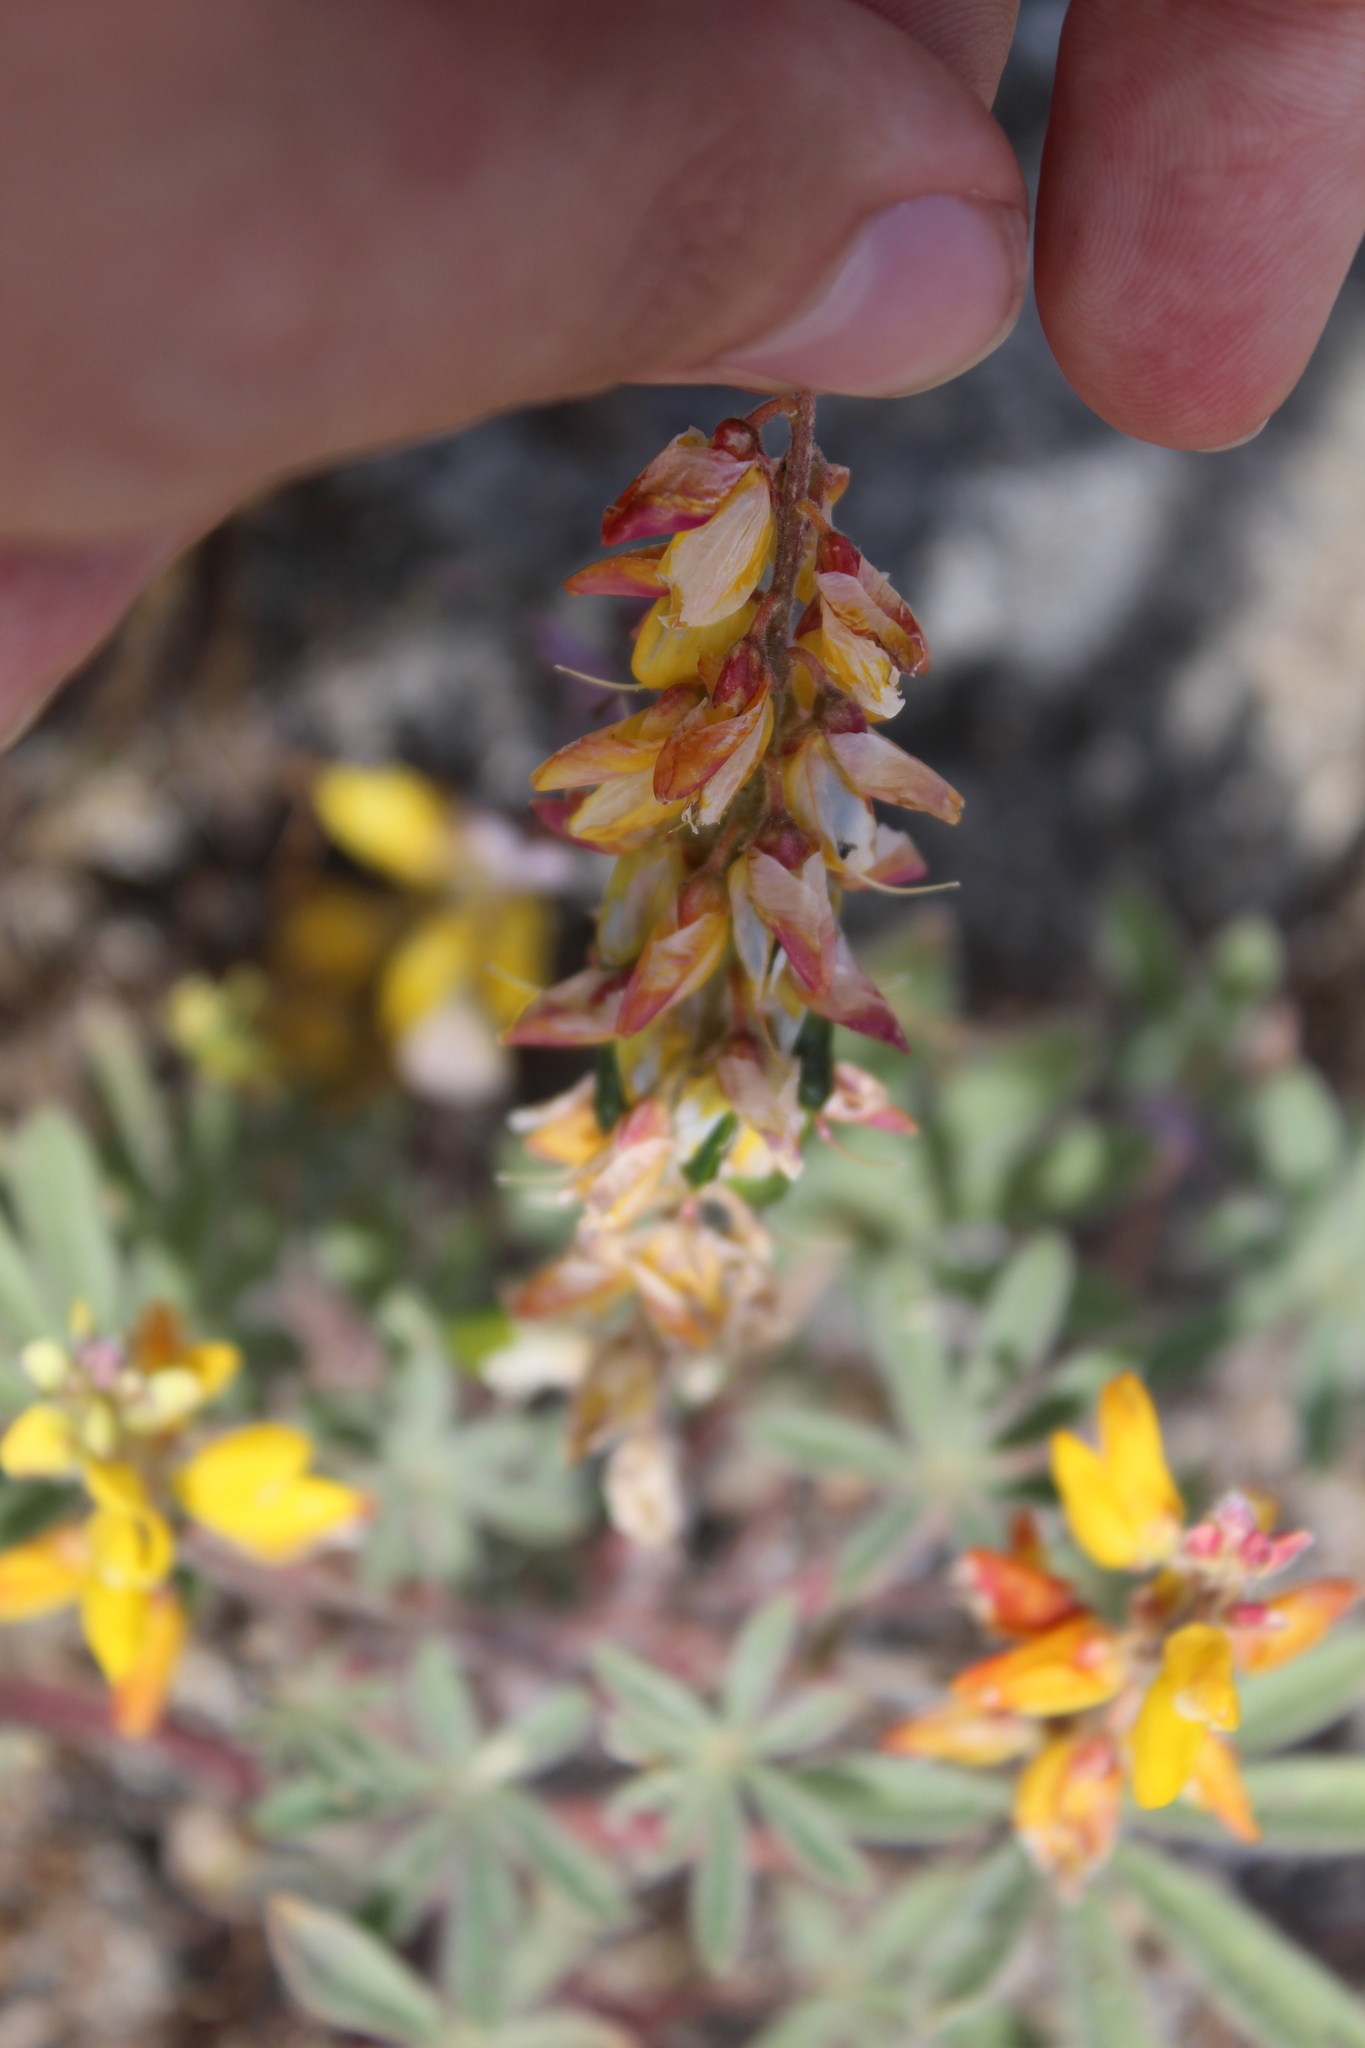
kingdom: Plantae
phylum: Tracheophyta
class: Magnoliopsida
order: Fabales
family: Fabaceae
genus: Lupinus
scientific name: Lupinus citrinus
